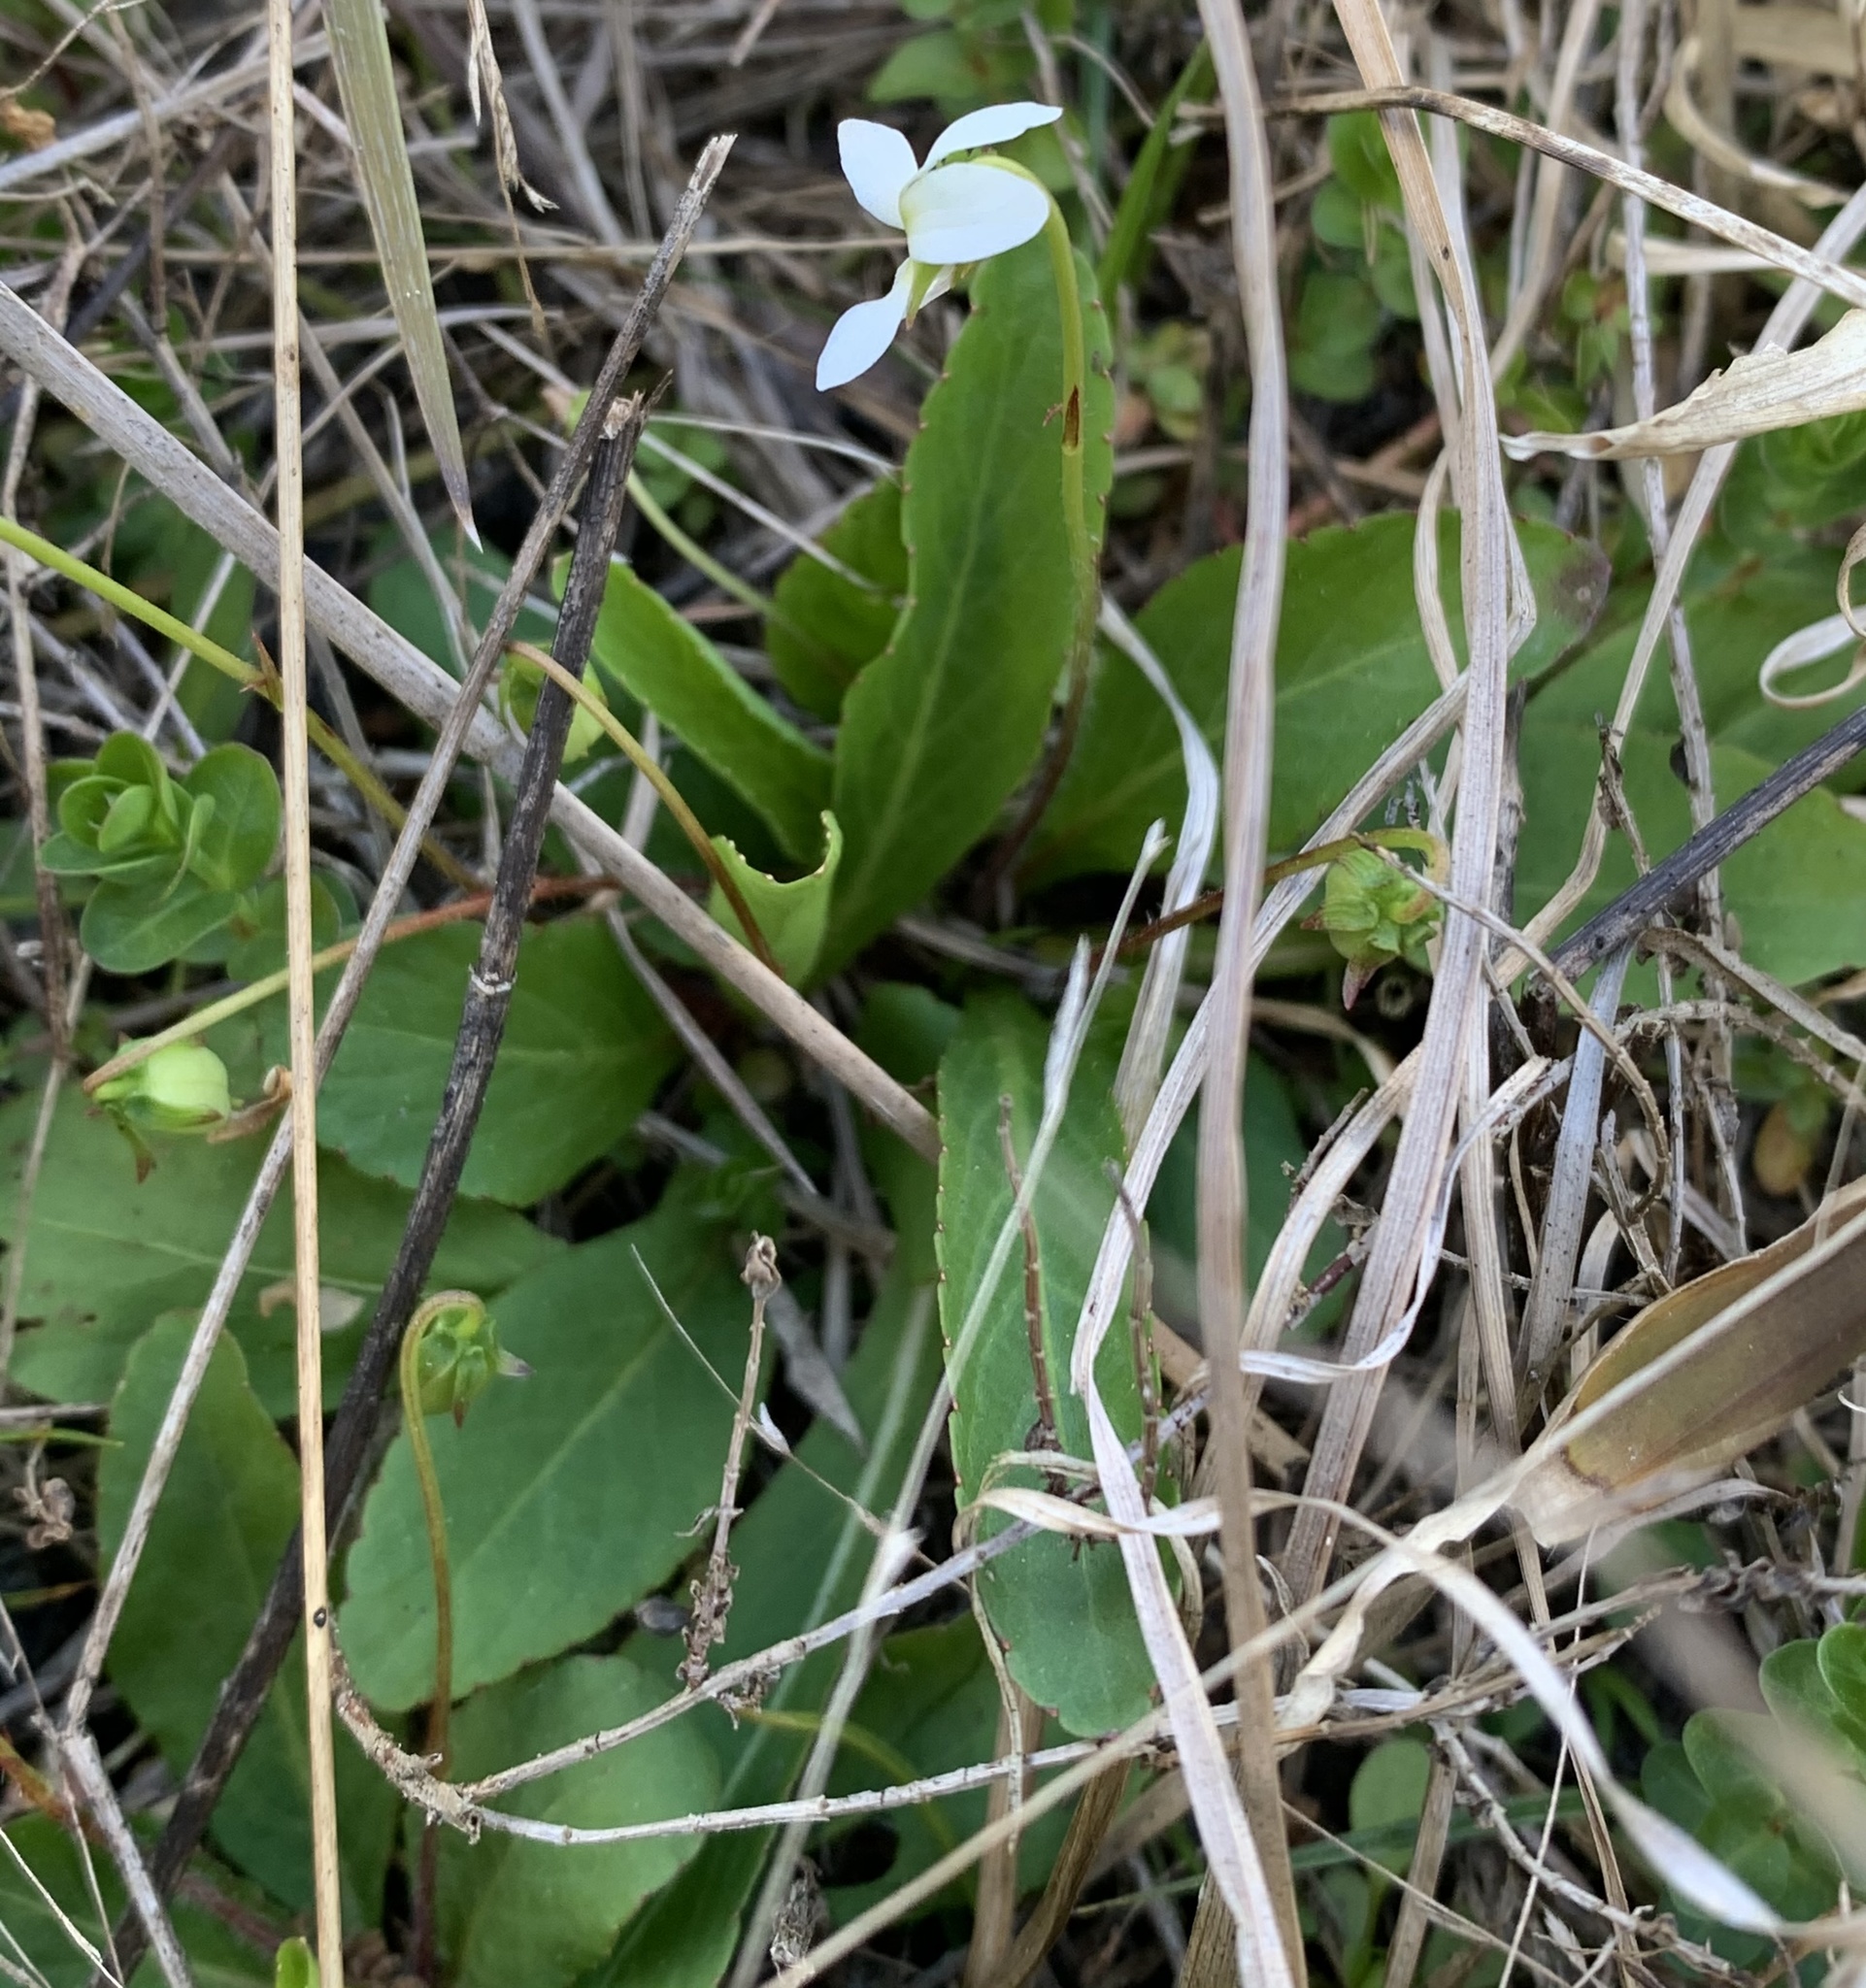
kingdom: Plantae
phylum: Tracheophyta
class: Magnoliopsida
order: Malpighiales
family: Violaceae
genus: Viola
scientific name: Viola lanceolata
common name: Bog white violet
